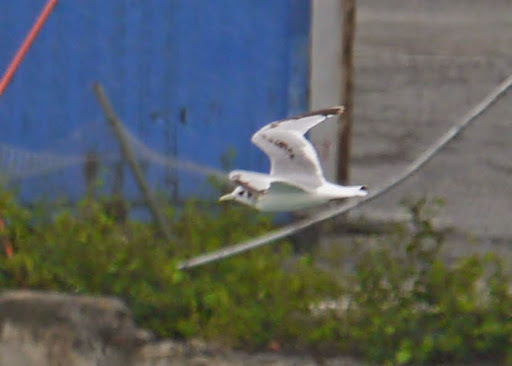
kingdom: Animalia
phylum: Chordata
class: Aves
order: Charadriiformes
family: Laridae
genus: Rissa
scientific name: Rissa tridactyla
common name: Black-legged kittiwake
